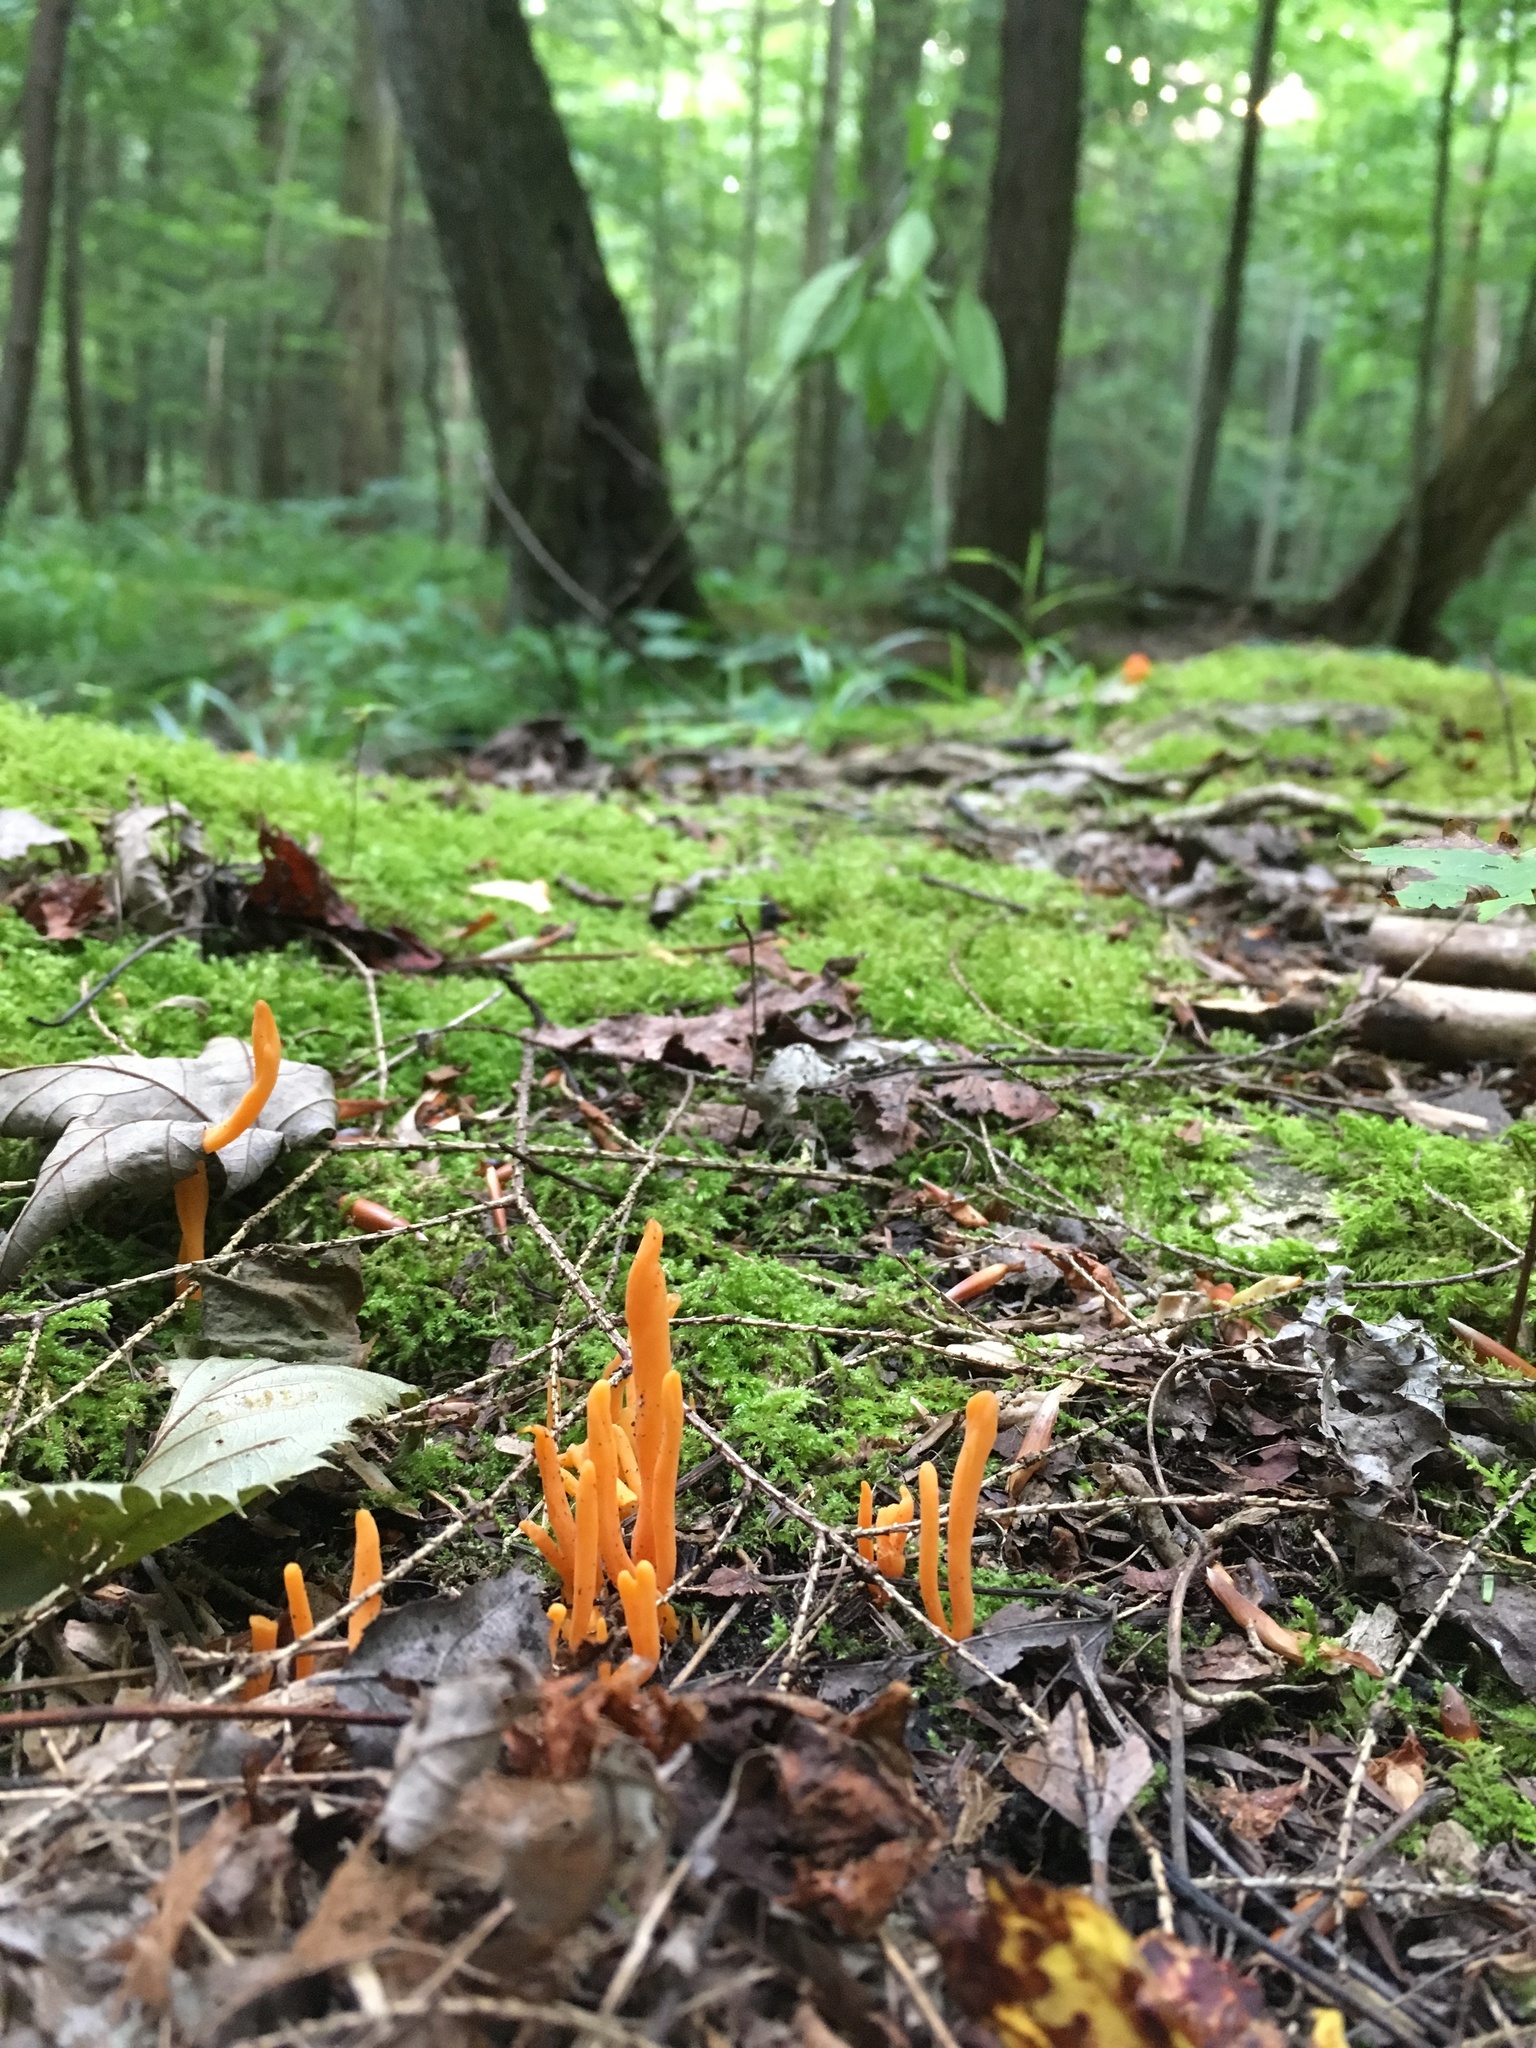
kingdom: Fungi
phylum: Basidiomycota
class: Agaricomycetes
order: Agaricales
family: Clavariaceae
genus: Clavulinopsis
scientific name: Clavulinopsis aurantiocinnabarina
